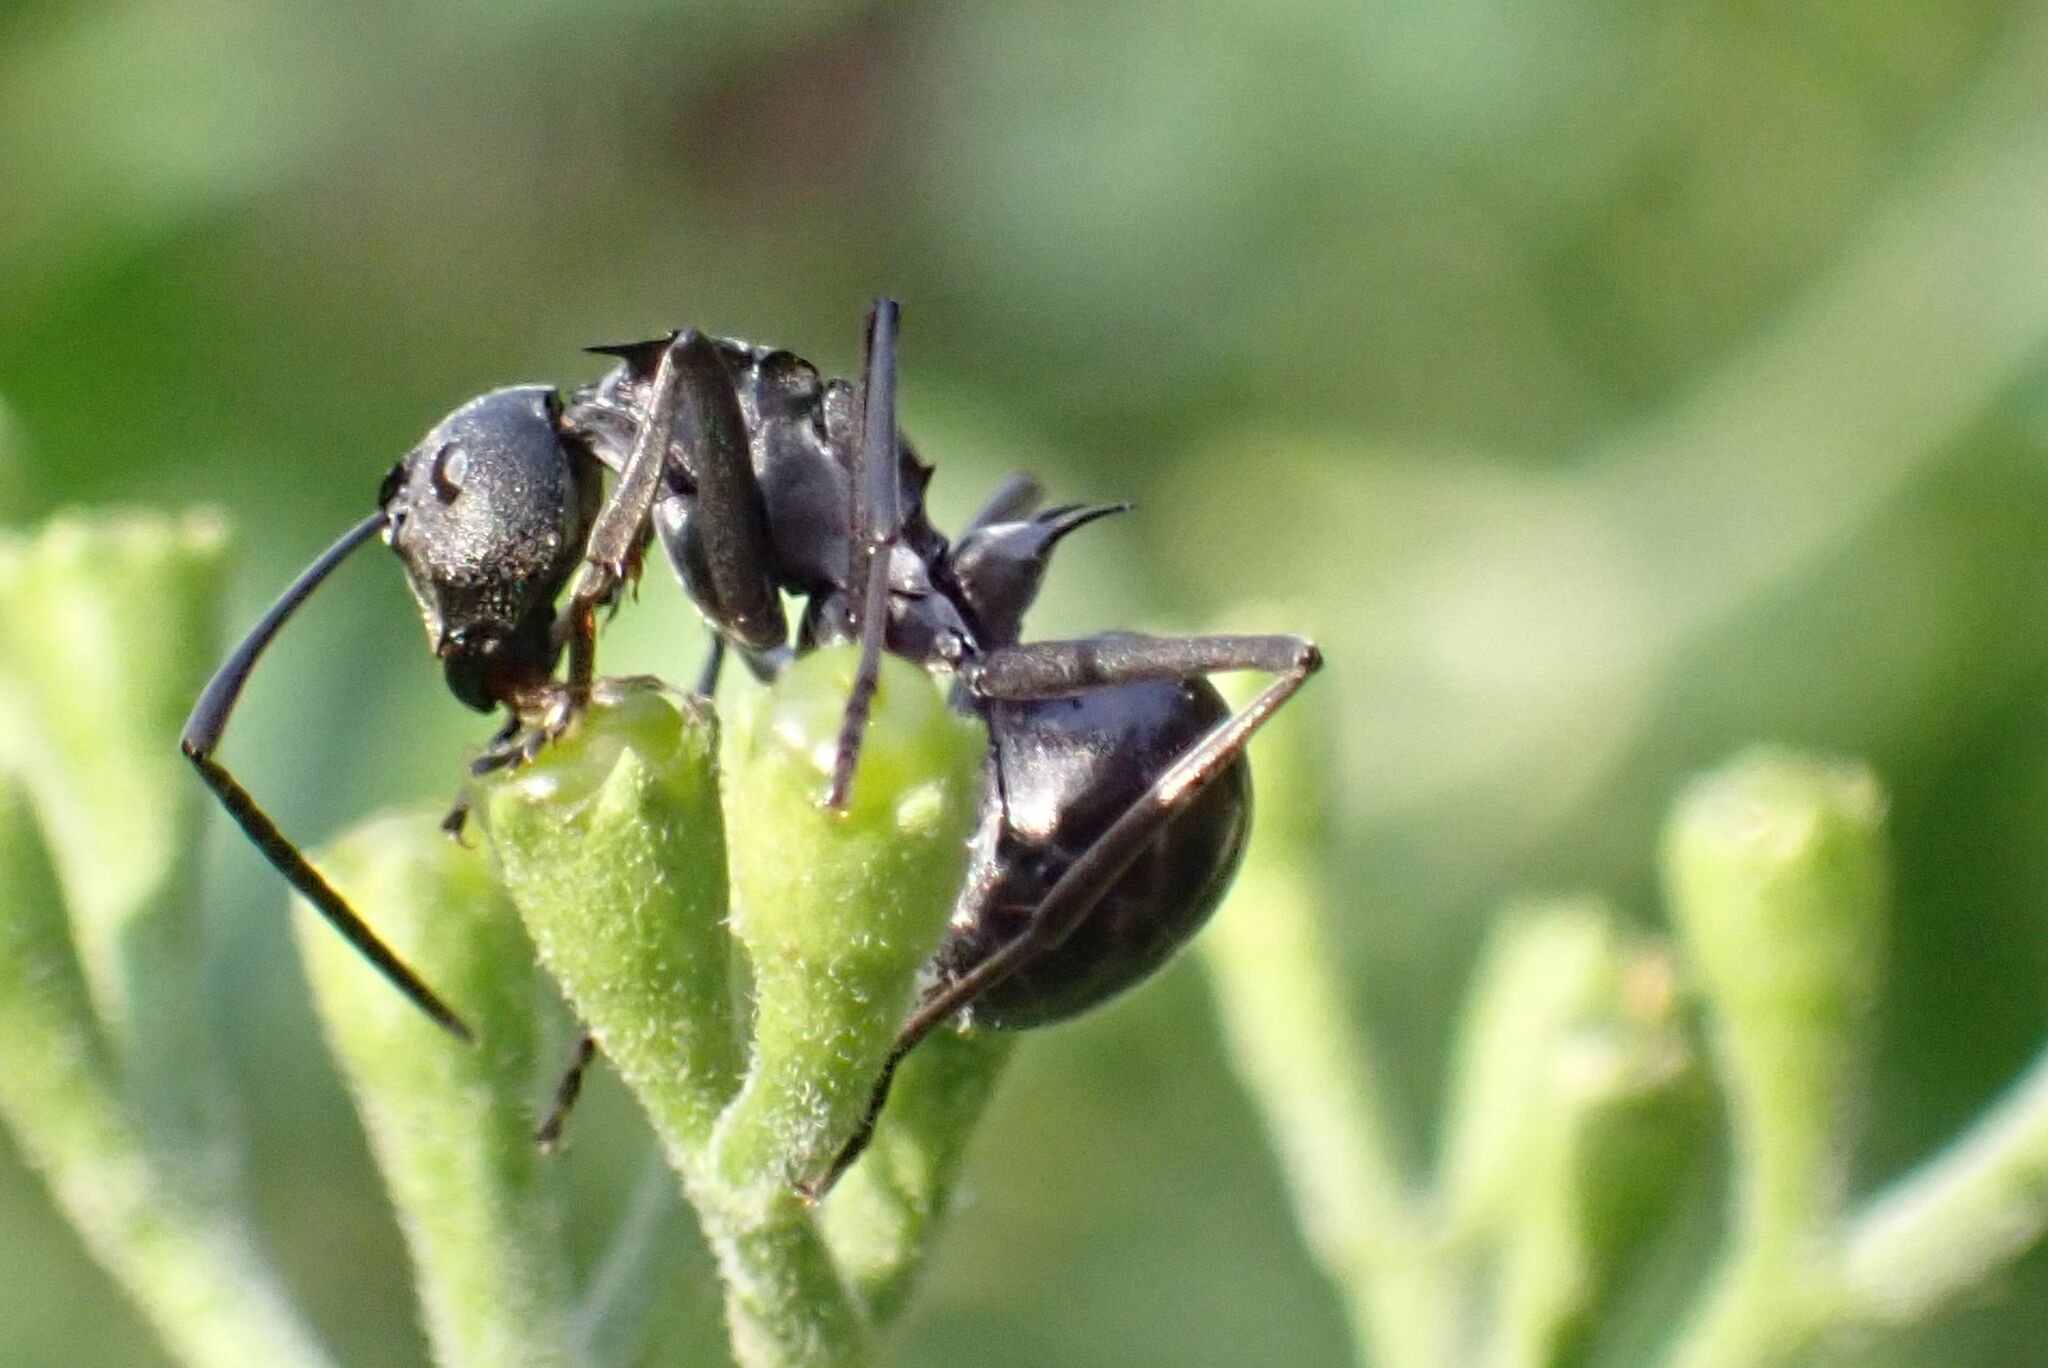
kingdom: Animalia
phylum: Arthropoda
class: Insecta
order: Hymenoptera
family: Formicidae
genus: Polyrhachis
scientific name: Polyrhachis gagates
